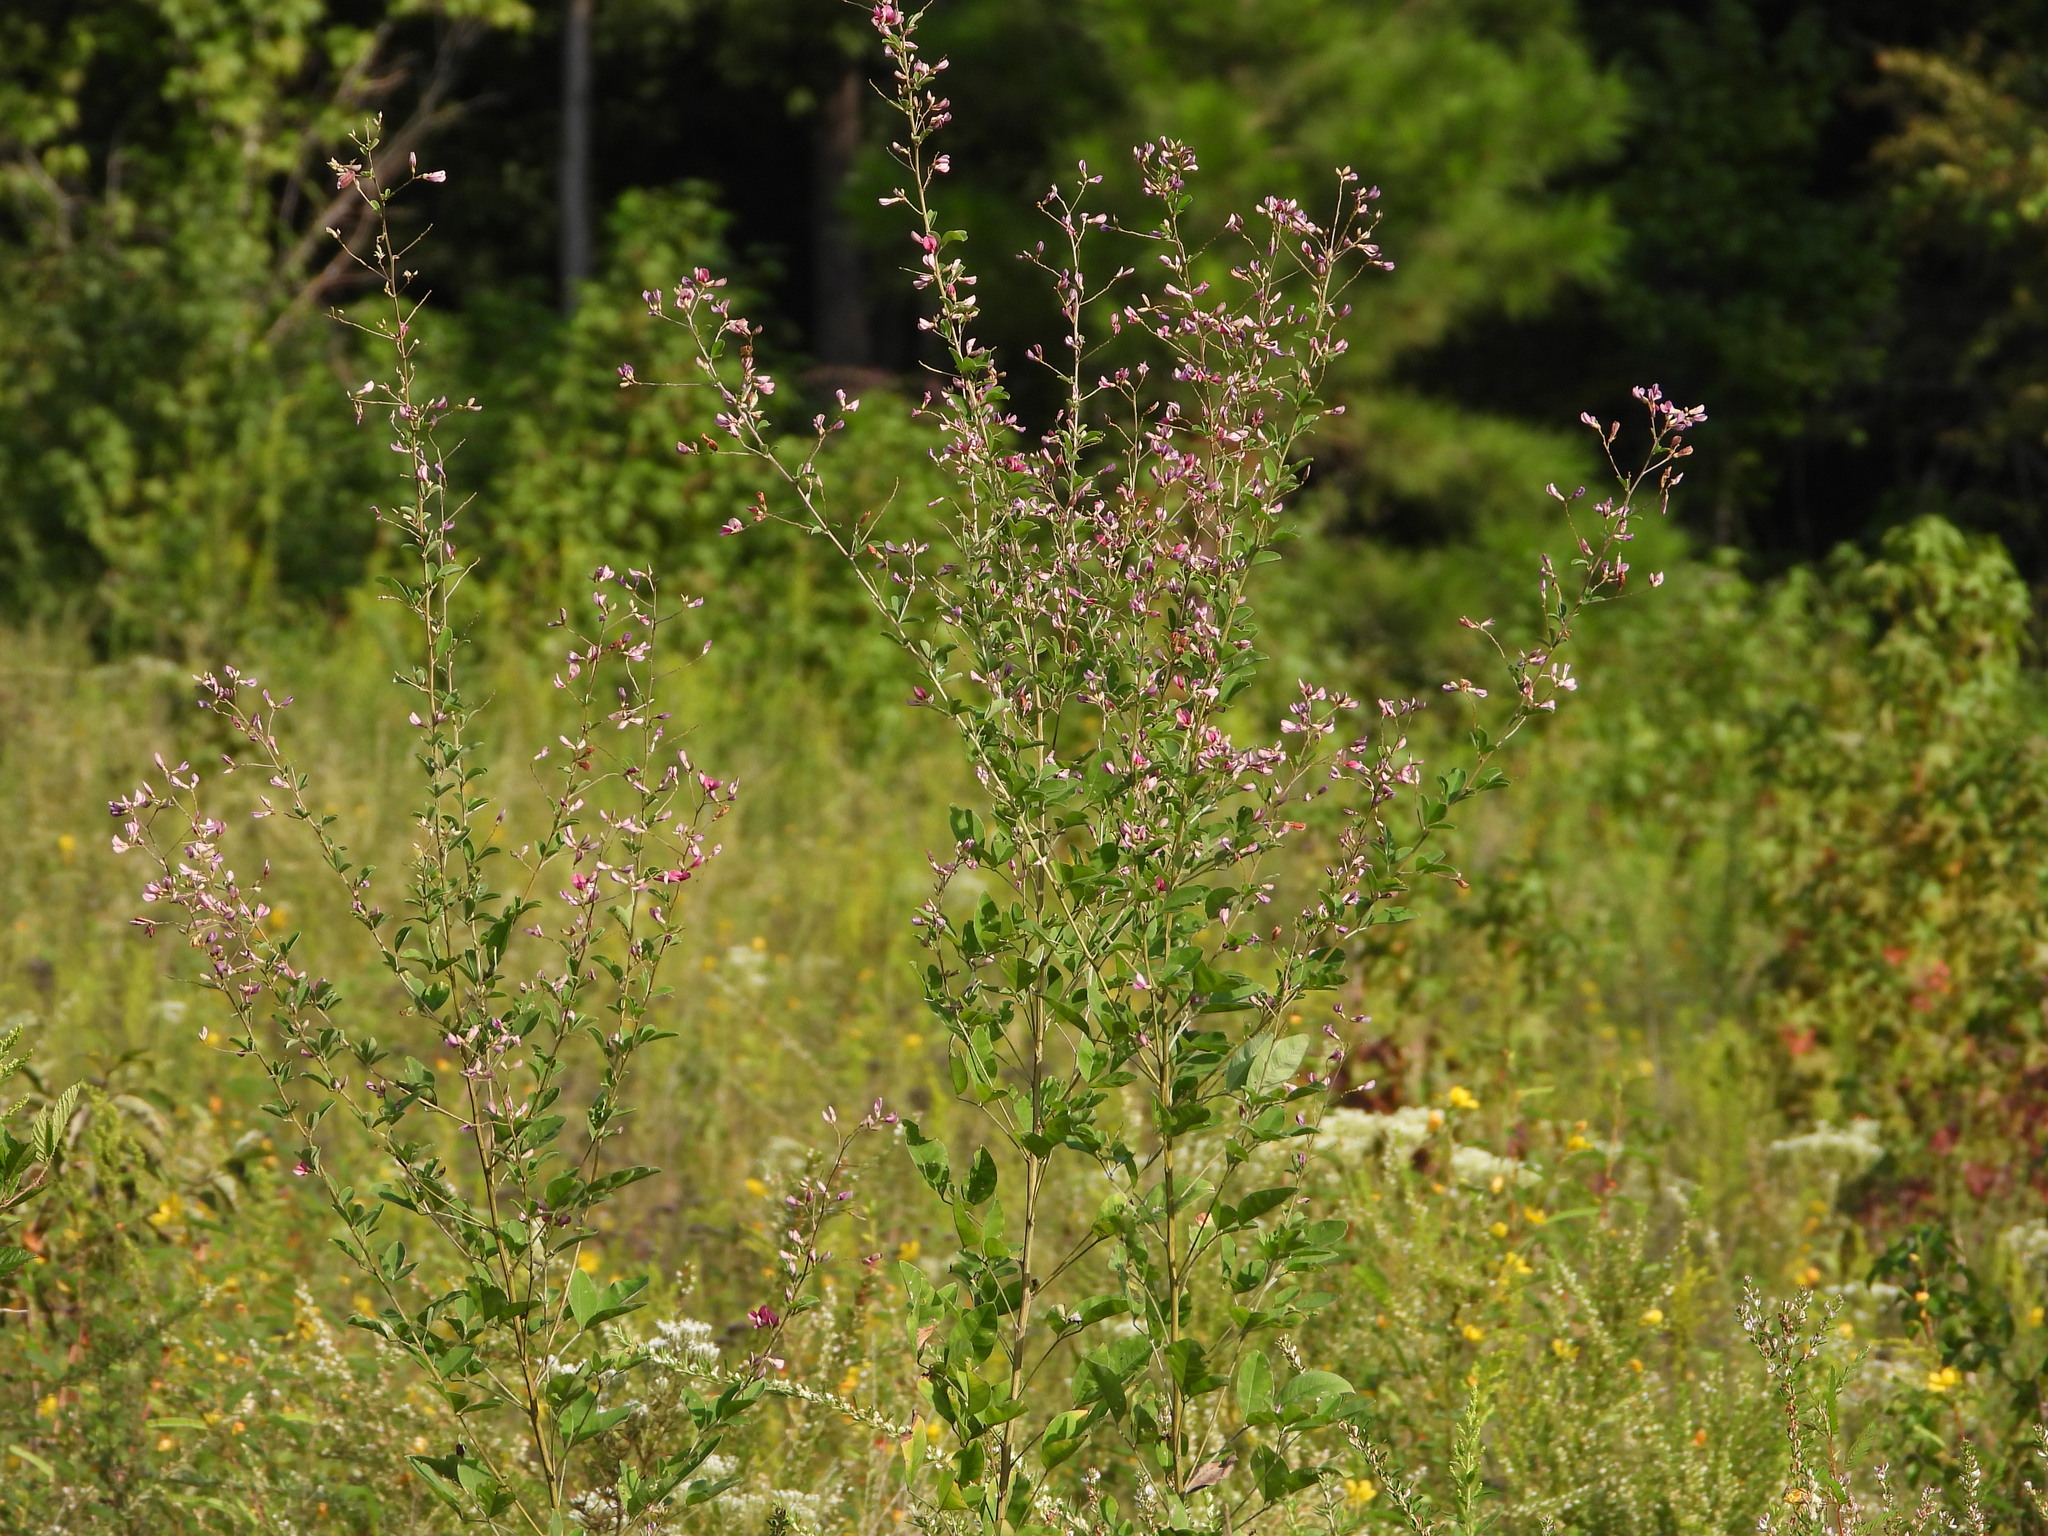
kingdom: Plantae
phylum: Tracheophyta
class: Magnoliopsida
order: Fabales
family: Fabaceae
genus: Lespedeza
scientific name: Lespedeza bicolor
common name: Shrub lespedeza
